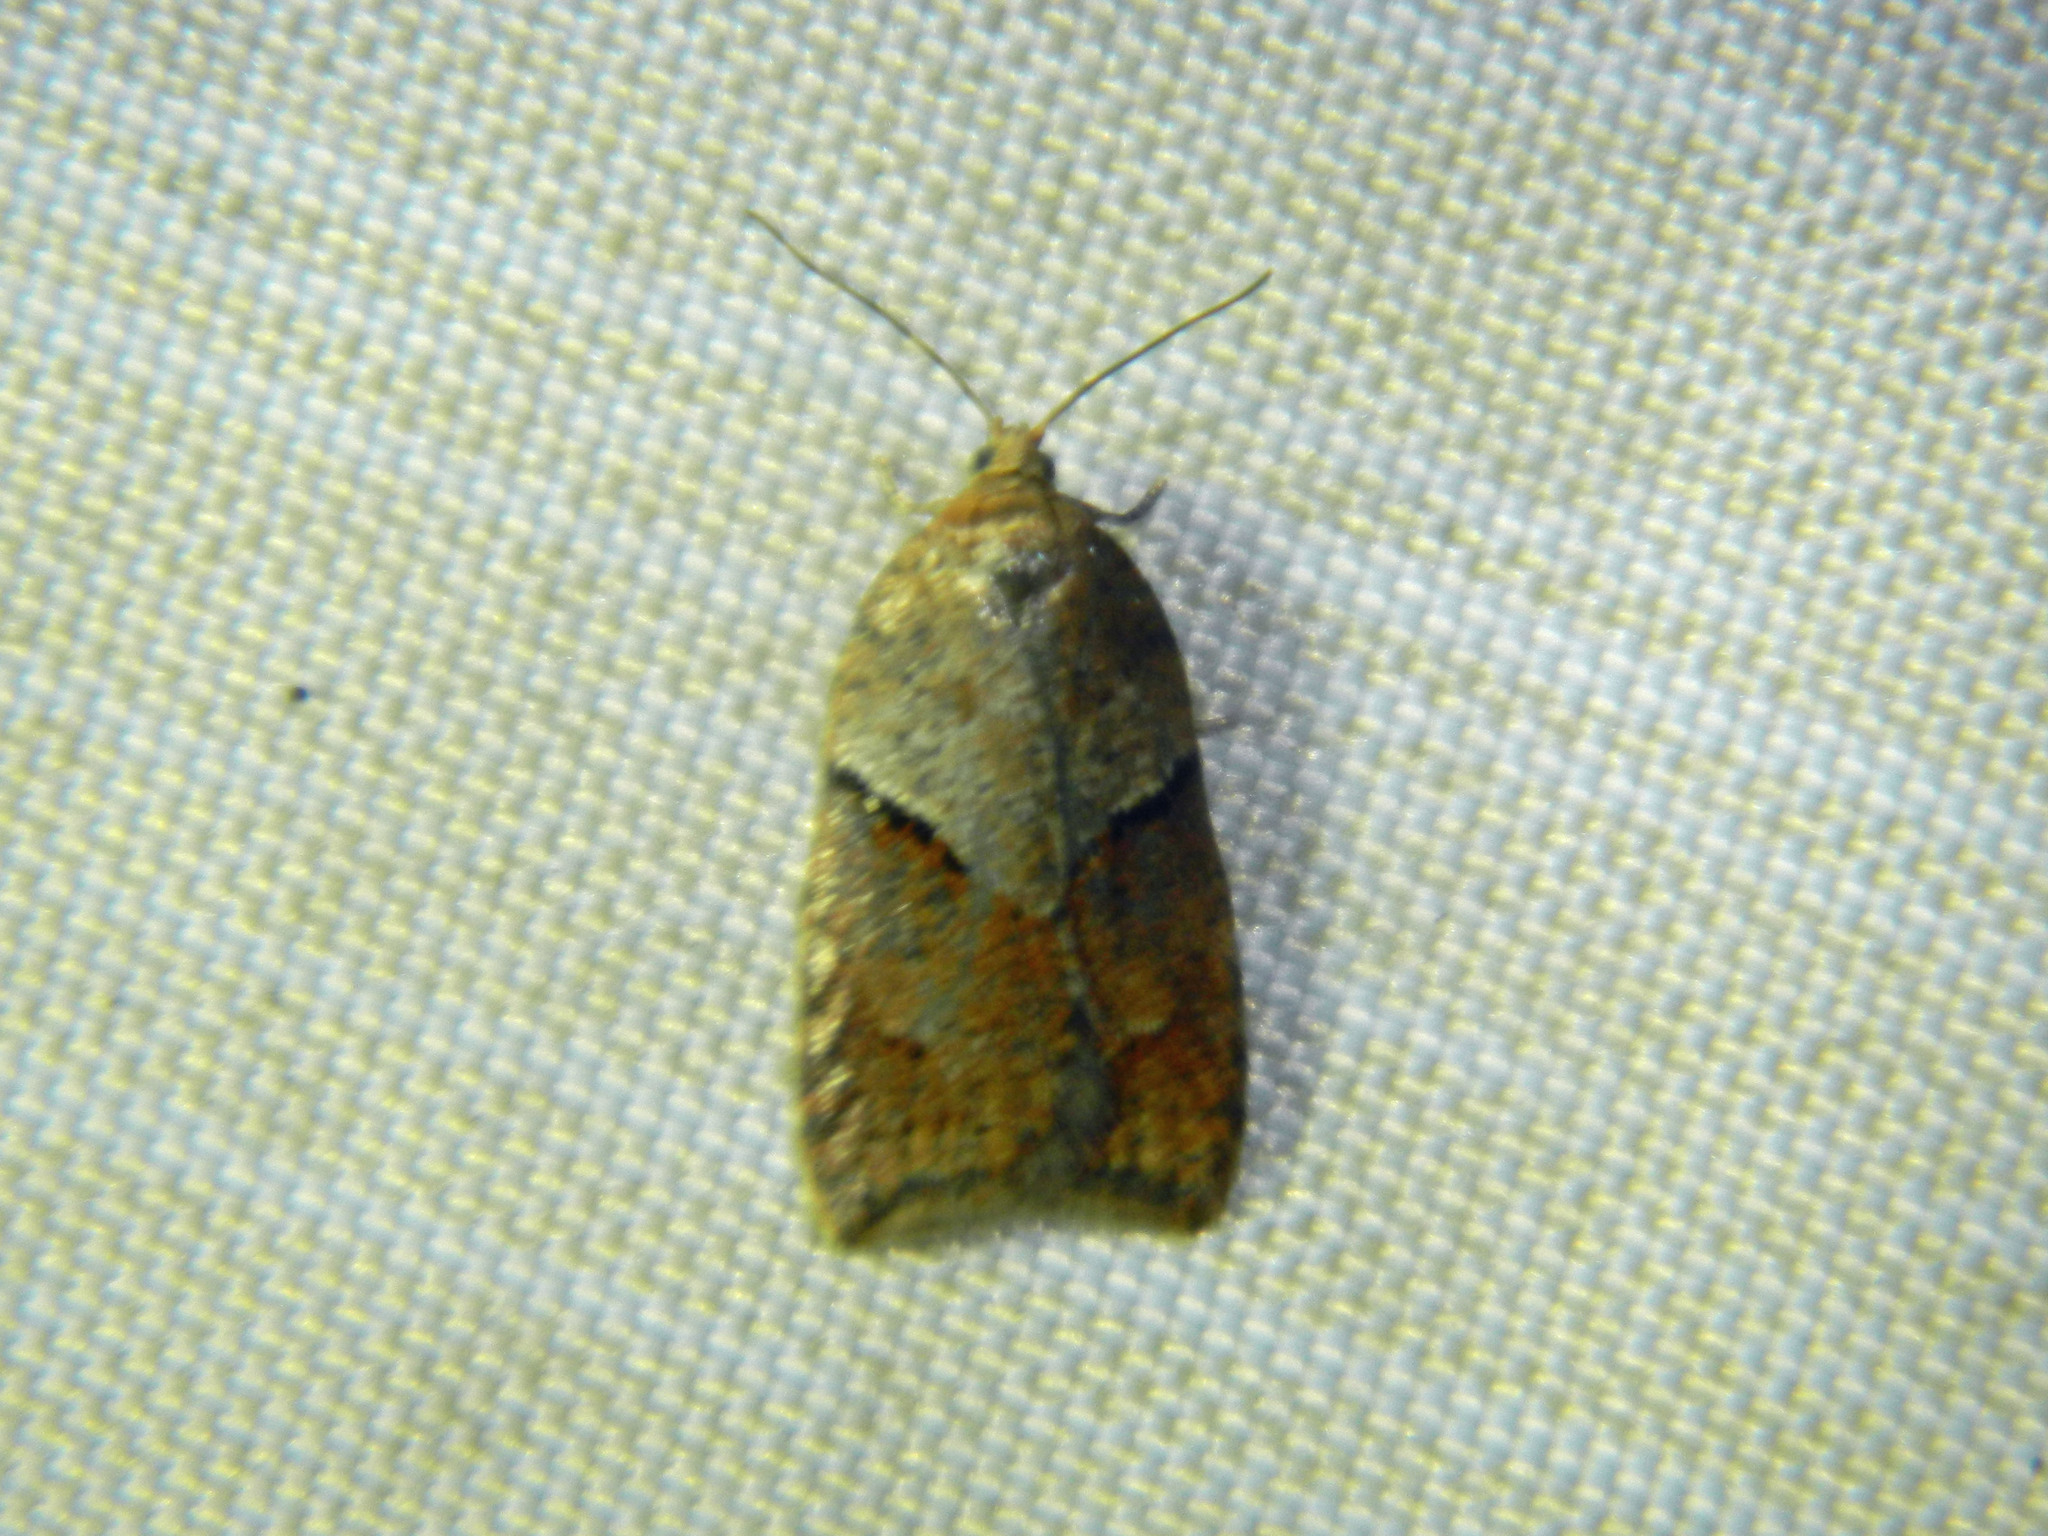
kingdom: Animalia
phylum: Arthropoda
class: Insecta
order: Lepidoptera
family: Tortricidae
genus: Acleris
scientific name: Acleris maccana
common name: Marbled button
